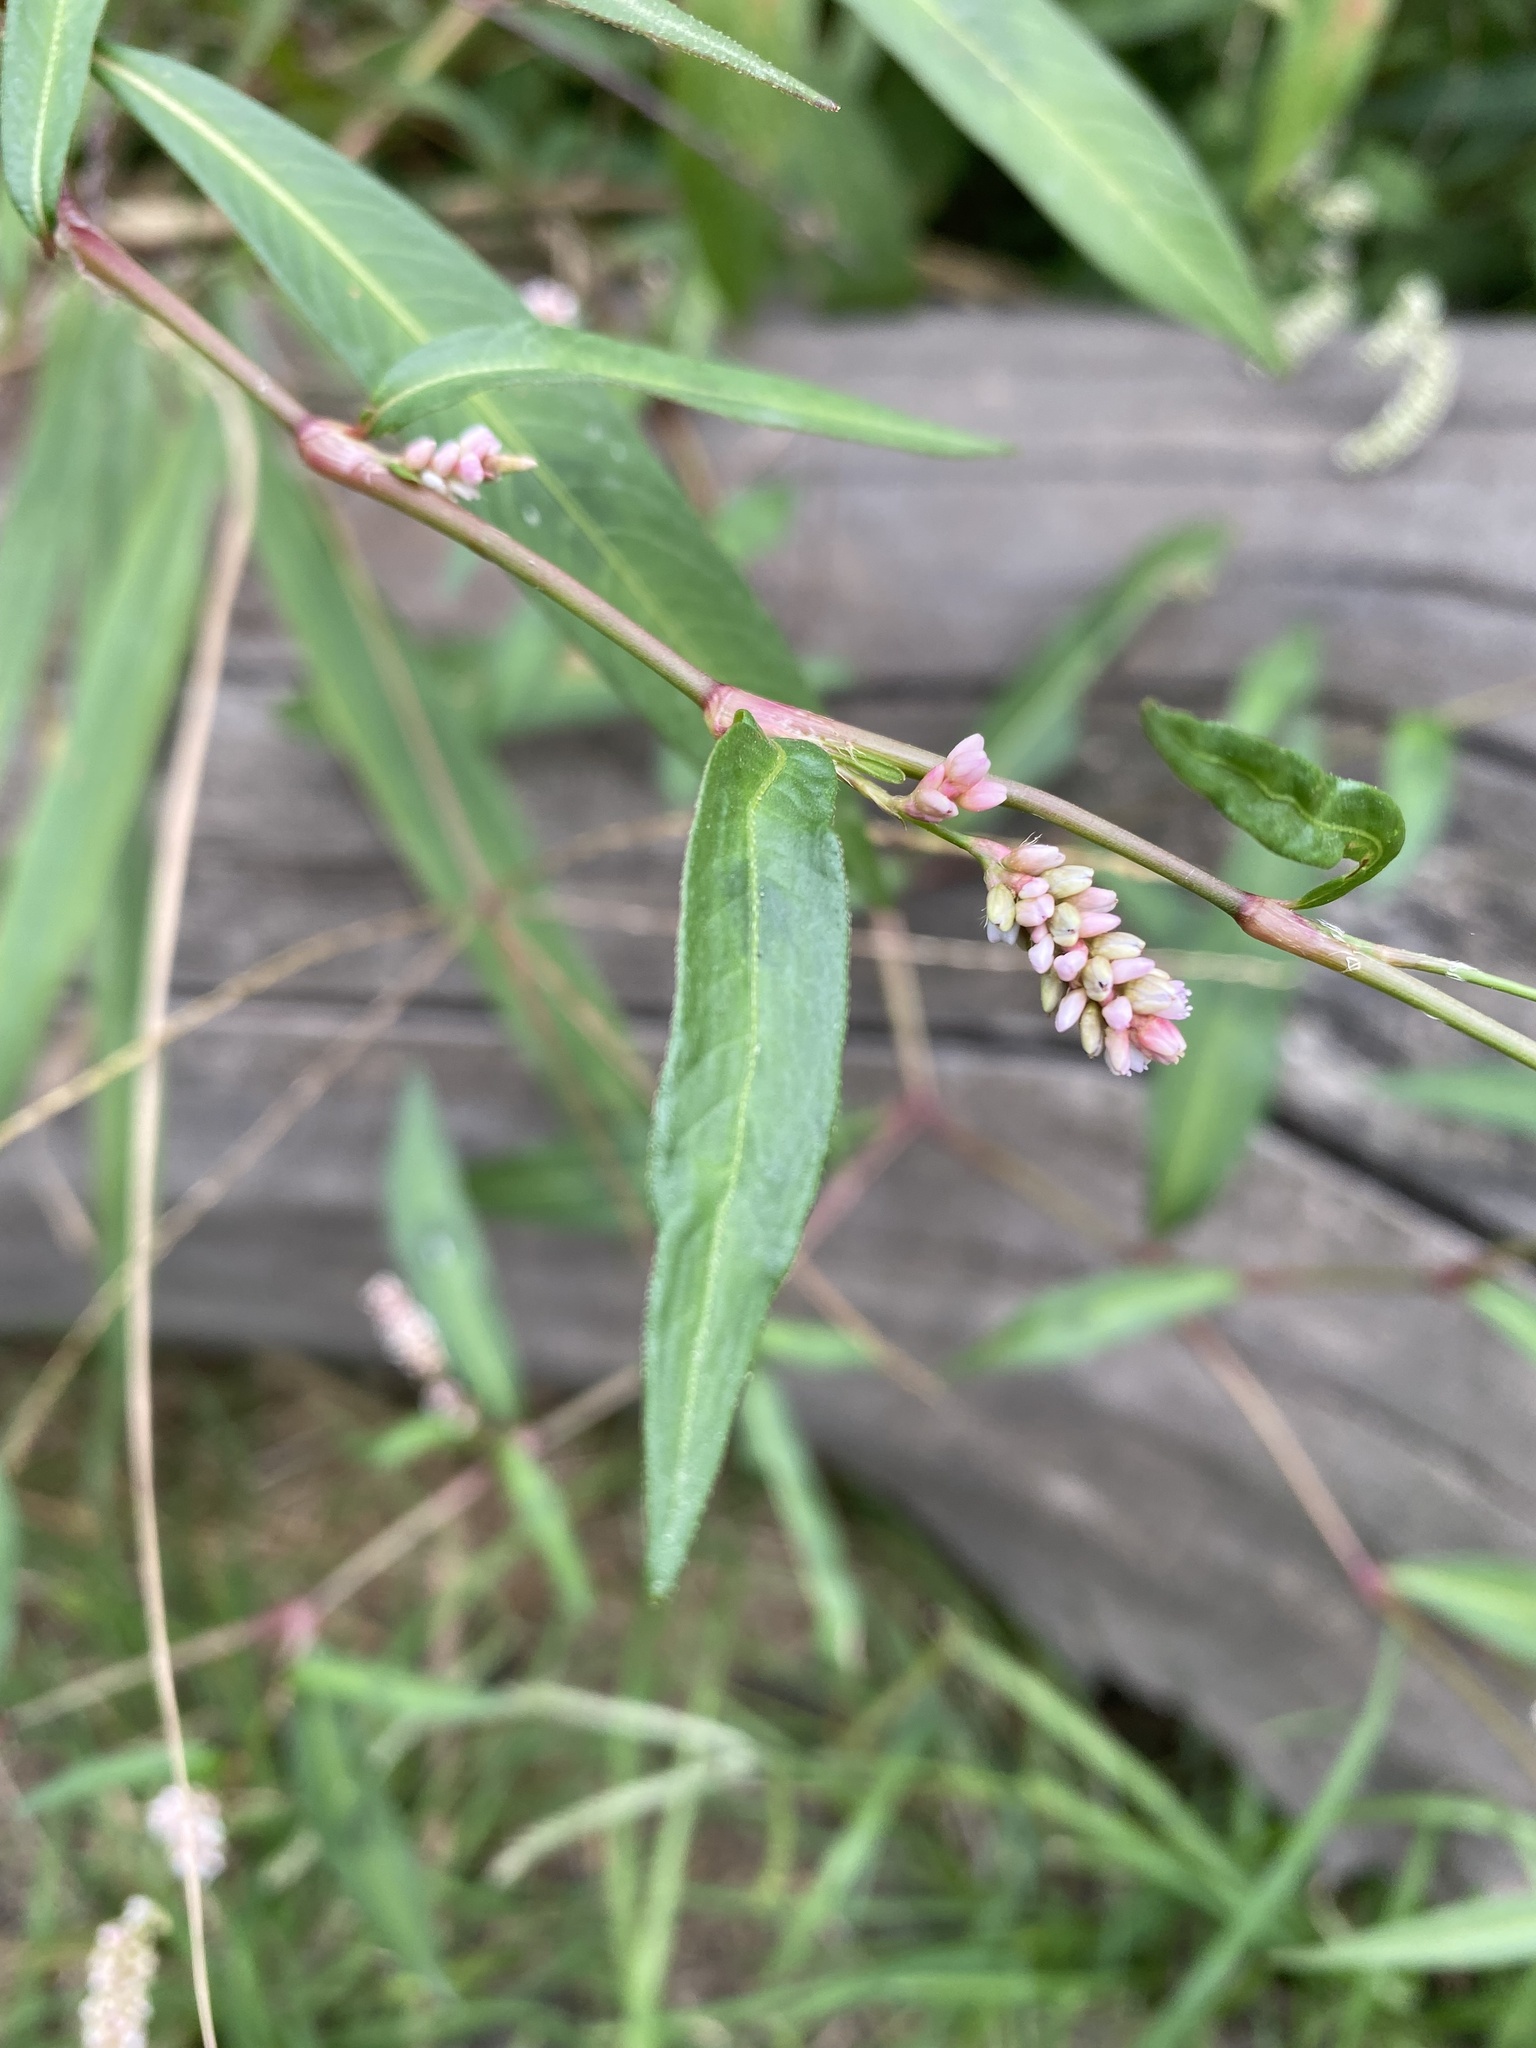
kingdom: Plantae
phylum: Tracheophyta
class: Magnoliopsida
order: Caryophyllales
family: Polygonaceae
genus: Persicaria
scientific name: Persicaria maculosa
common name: Redshank
